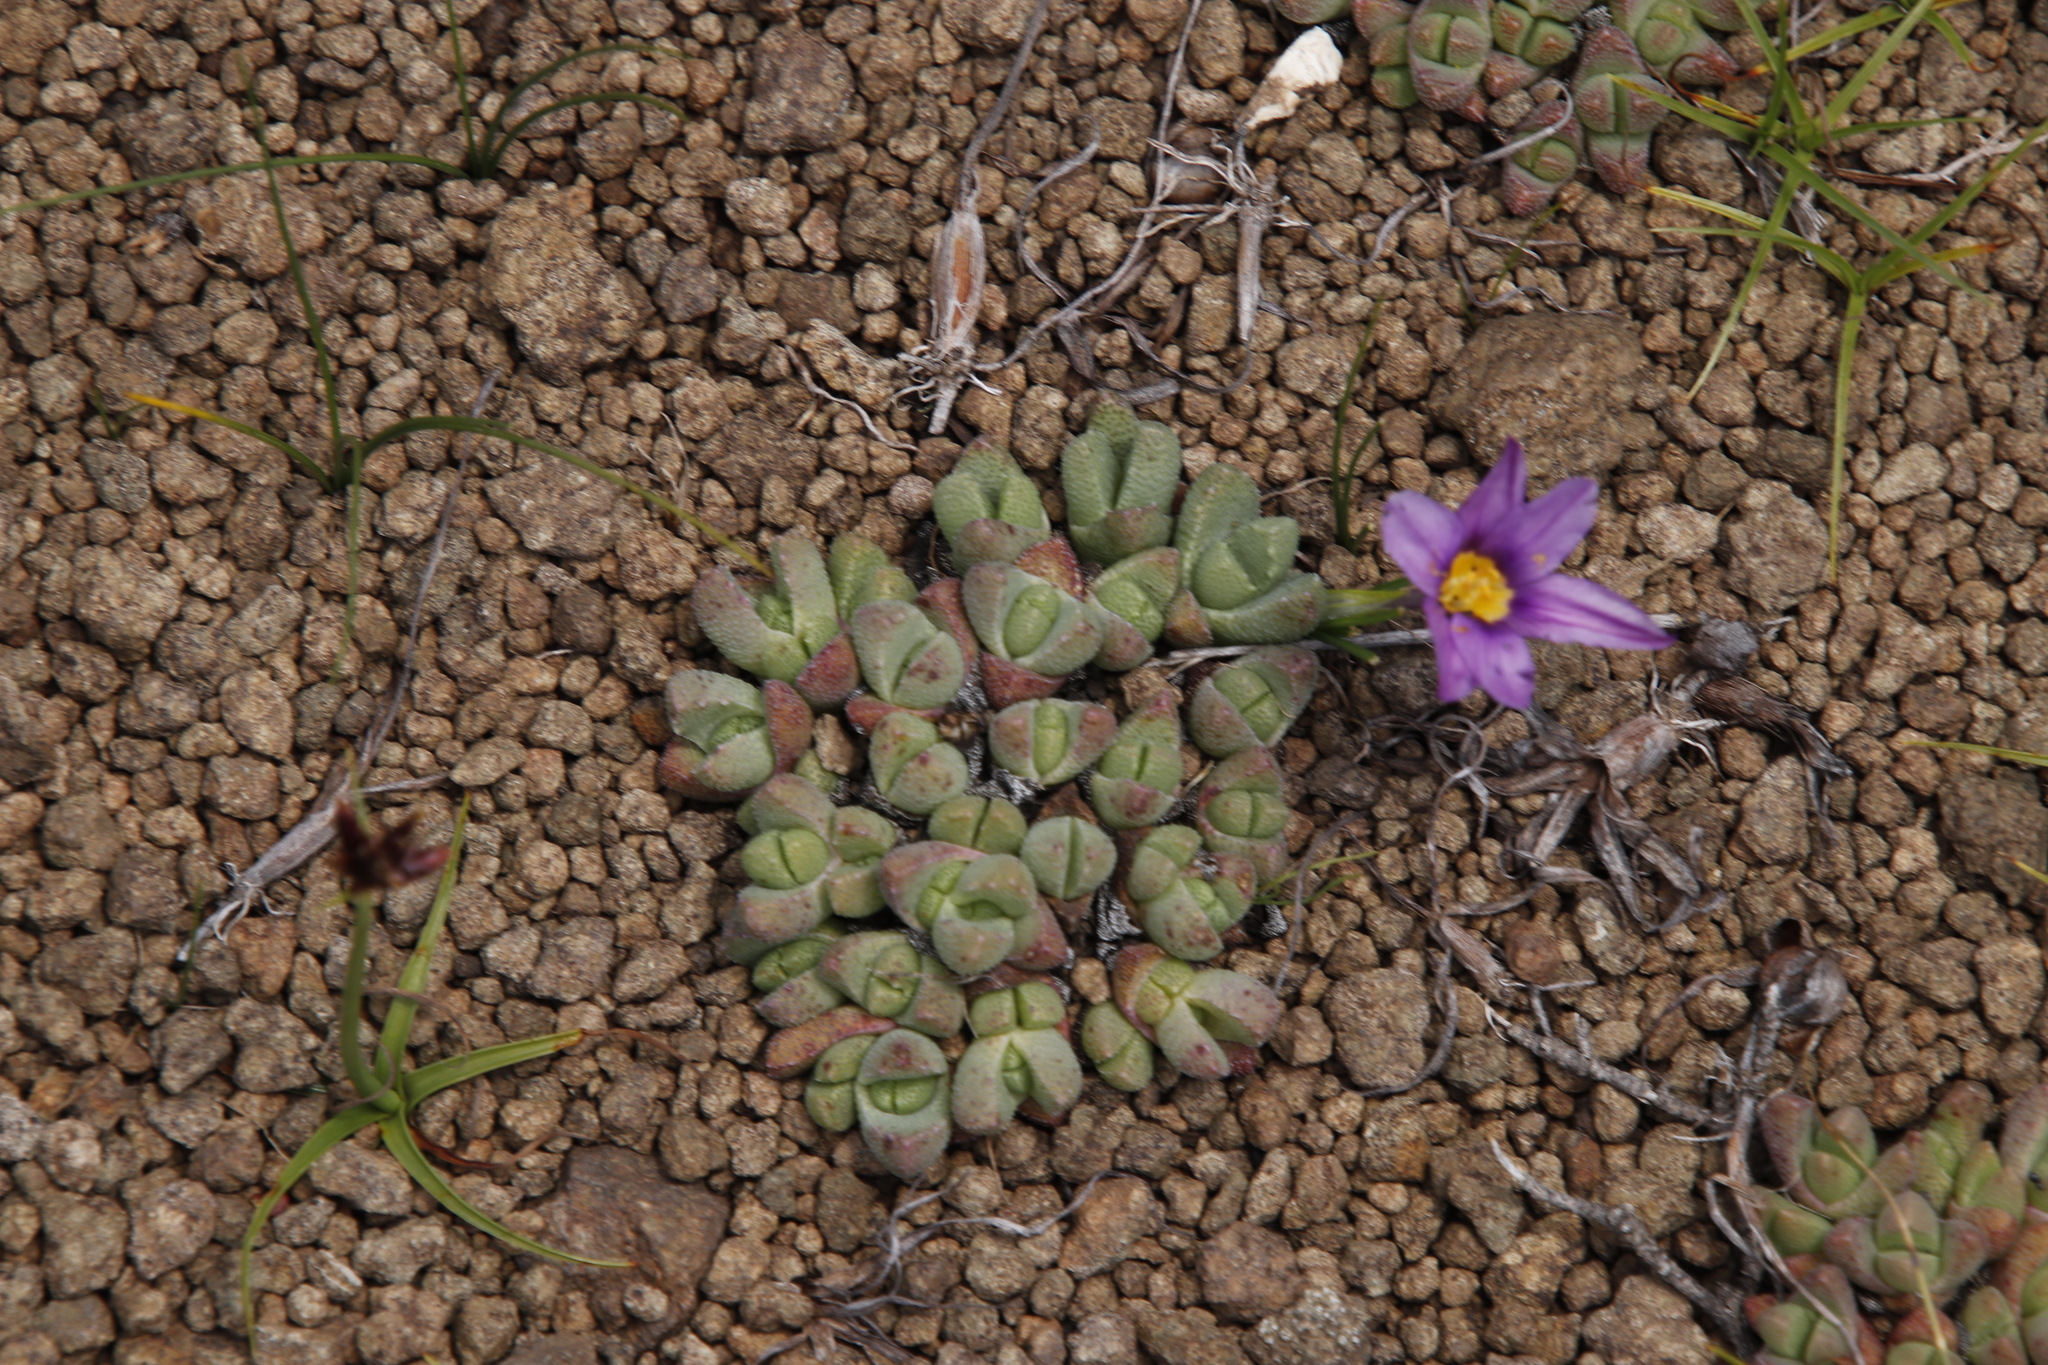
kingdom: Plantae
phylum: Tracheophyta
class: Liliopsida
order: Asparagales
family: Iridaceae
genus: Syringodea
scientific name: Syringodea bifucata
